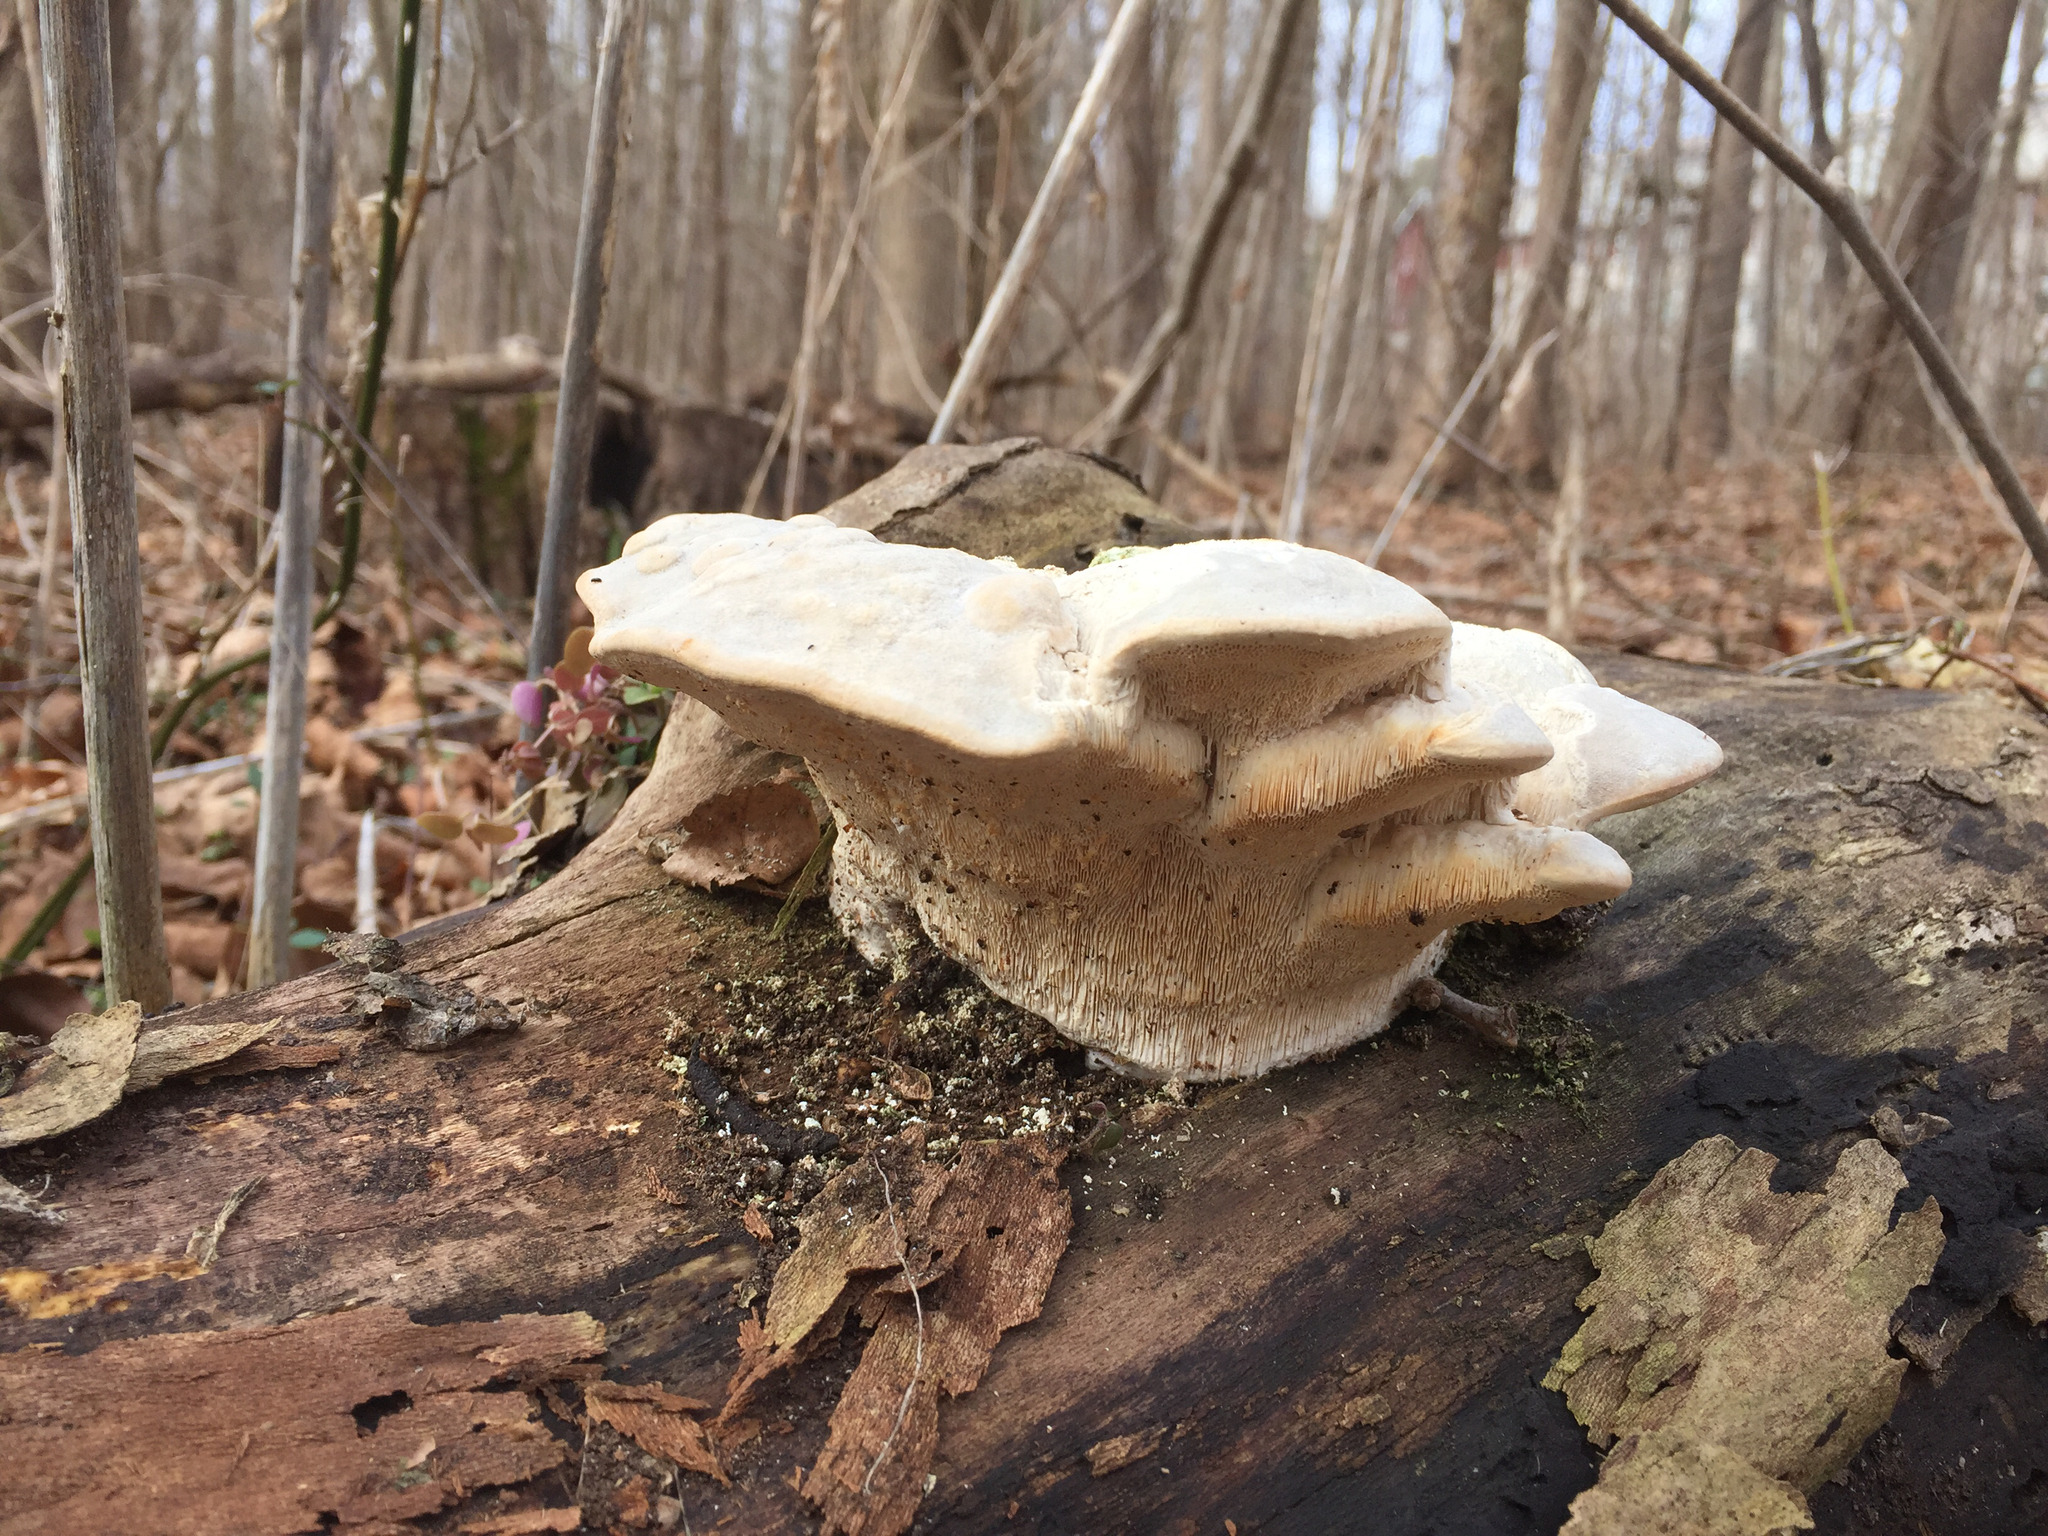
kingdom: Fungi
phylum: Basidiomycota
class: Agaricomycetes
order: Polyporales
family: Polyporaceae
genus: Trametes
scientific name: Trametes gibbosa
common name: Lumpy bracket
